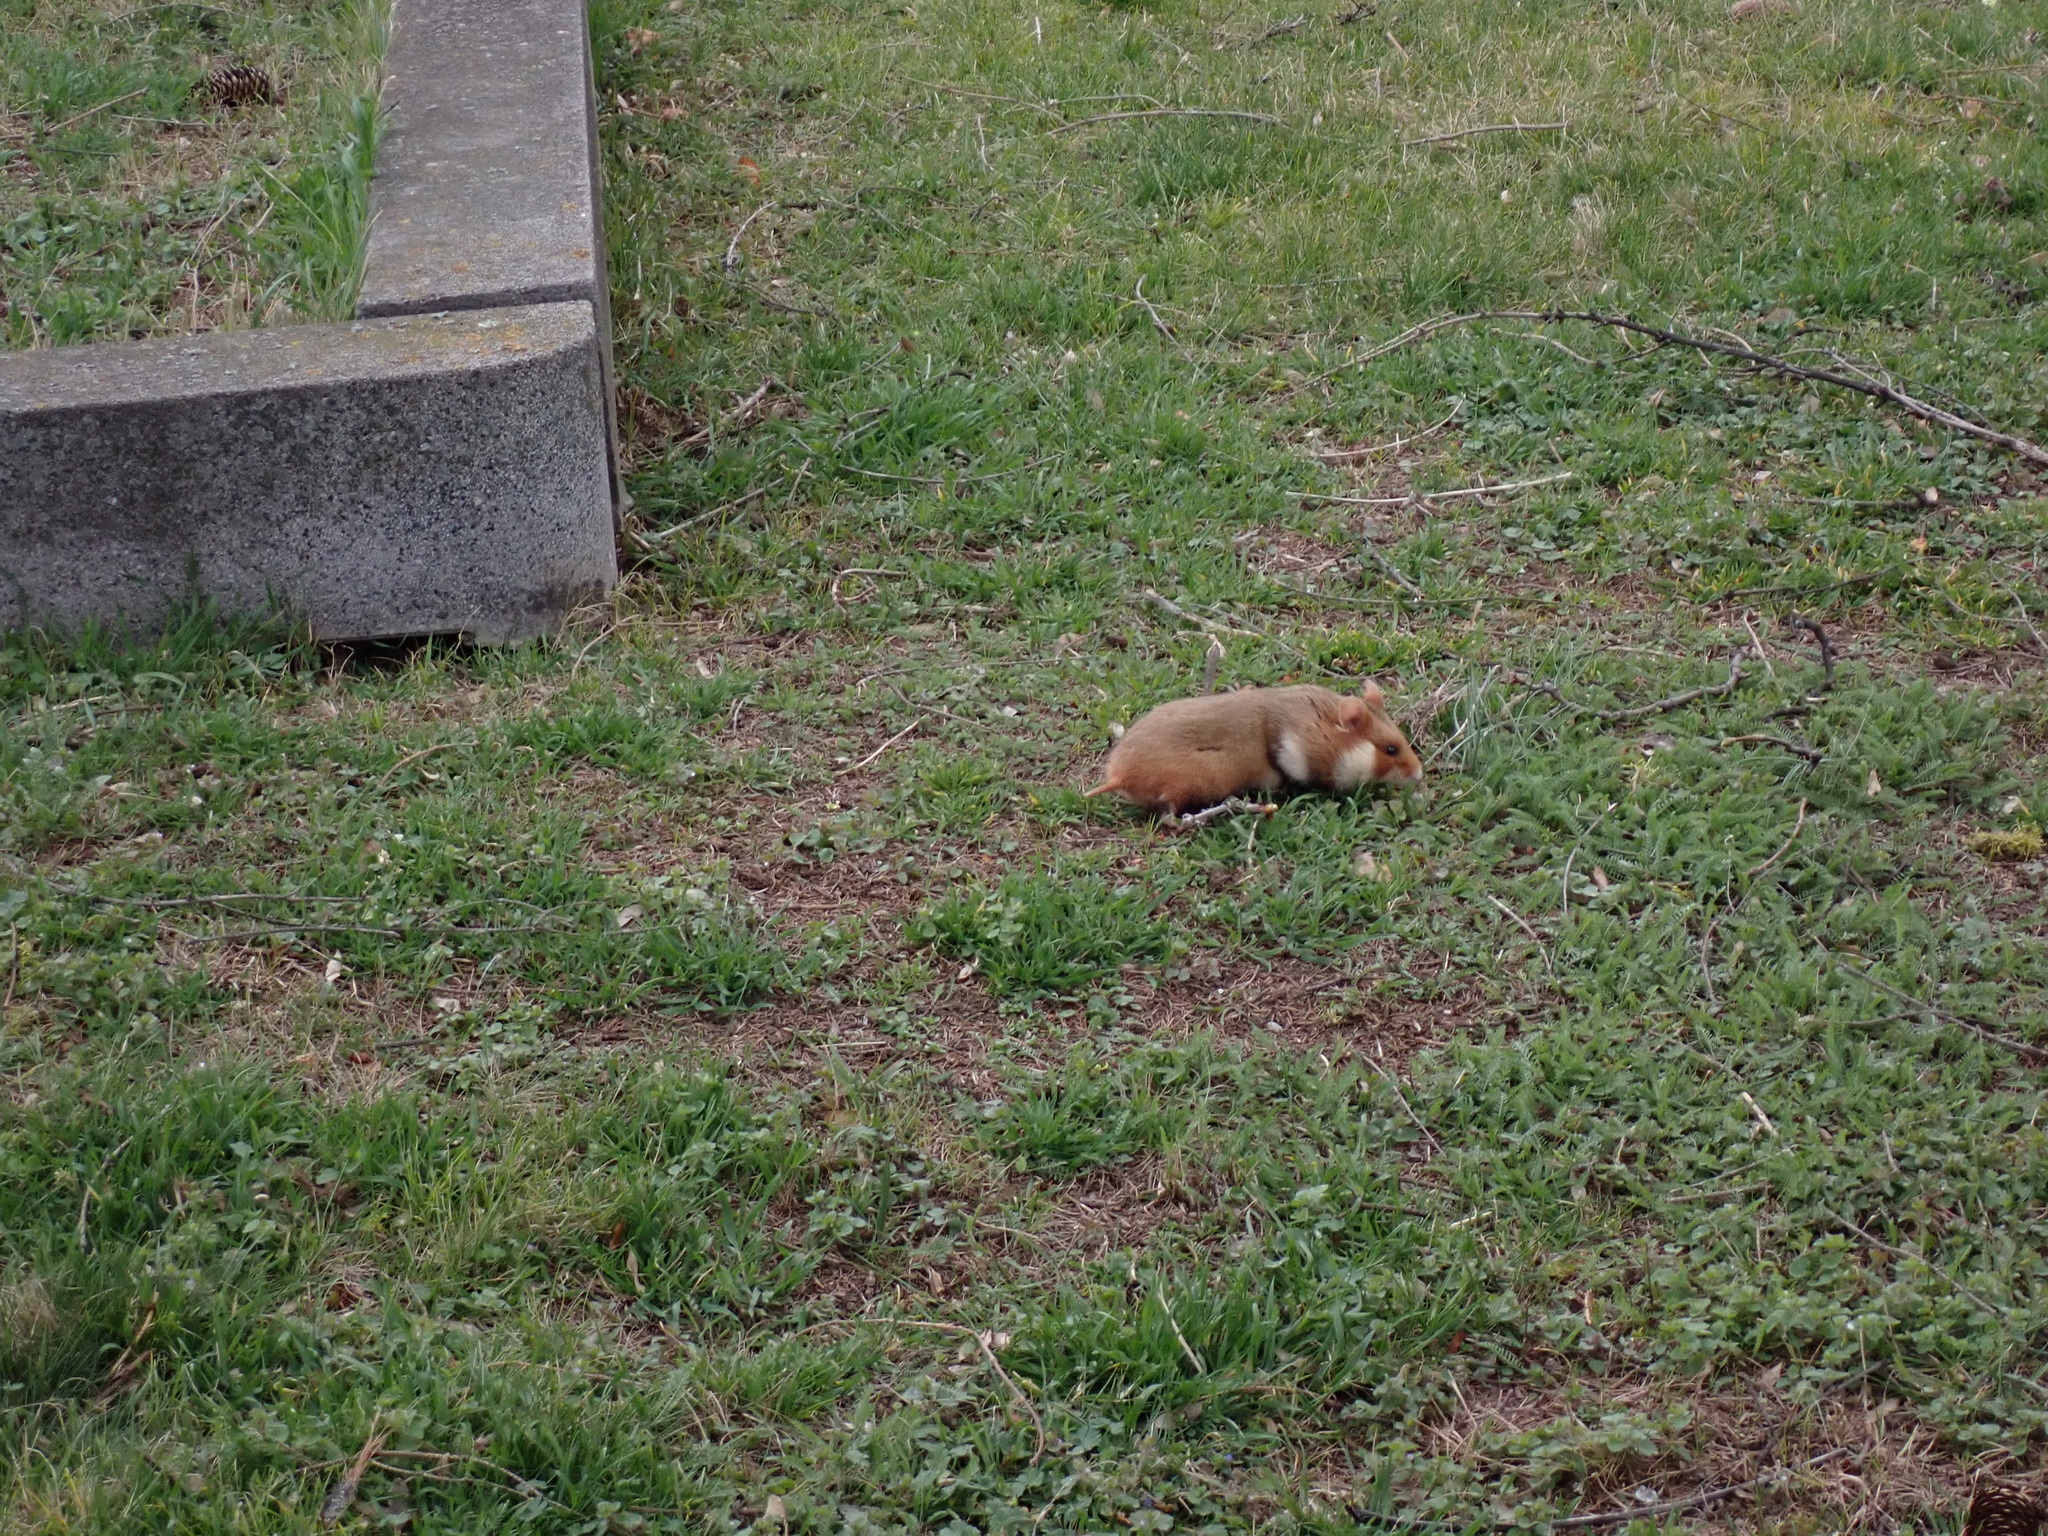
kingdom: Animalia
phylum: Chordata
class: Mammalia
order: Rodentia
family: Cricetidae
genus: Cricetus
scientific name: Cricetus cricetus
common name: Common hamster
